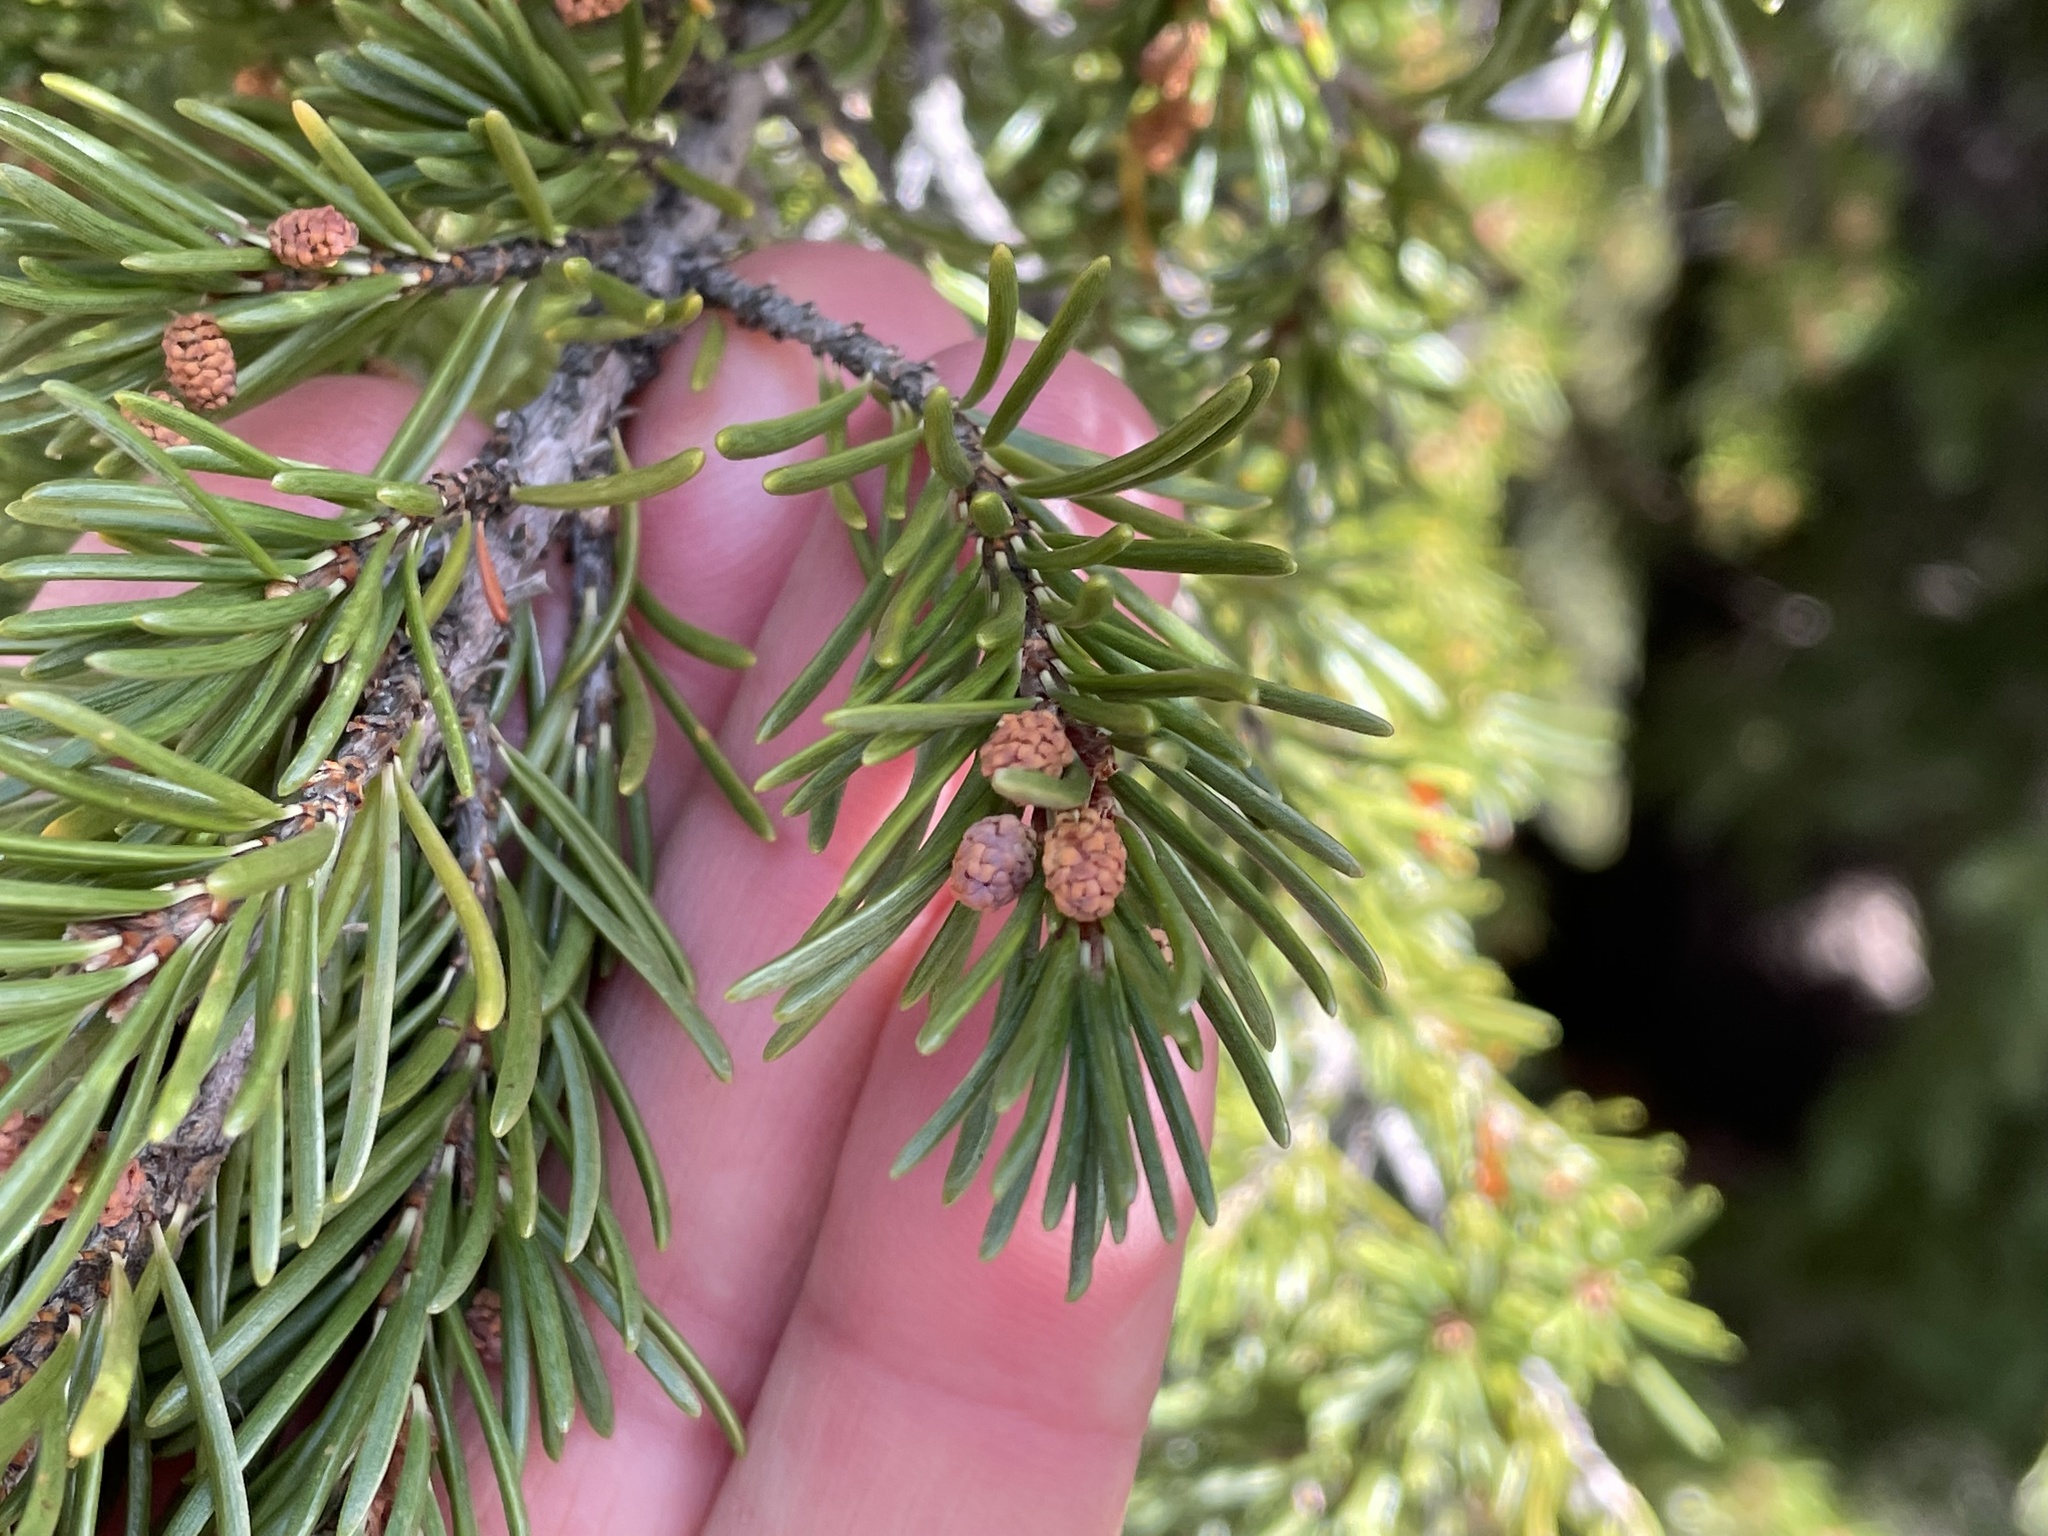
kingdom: Plantae
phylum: Tracheophyta
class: Pinopsida
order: Pinales
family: Pinaceae
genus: Tsuga
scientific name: Tsuga mertensiana
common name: Mountain hemlock
